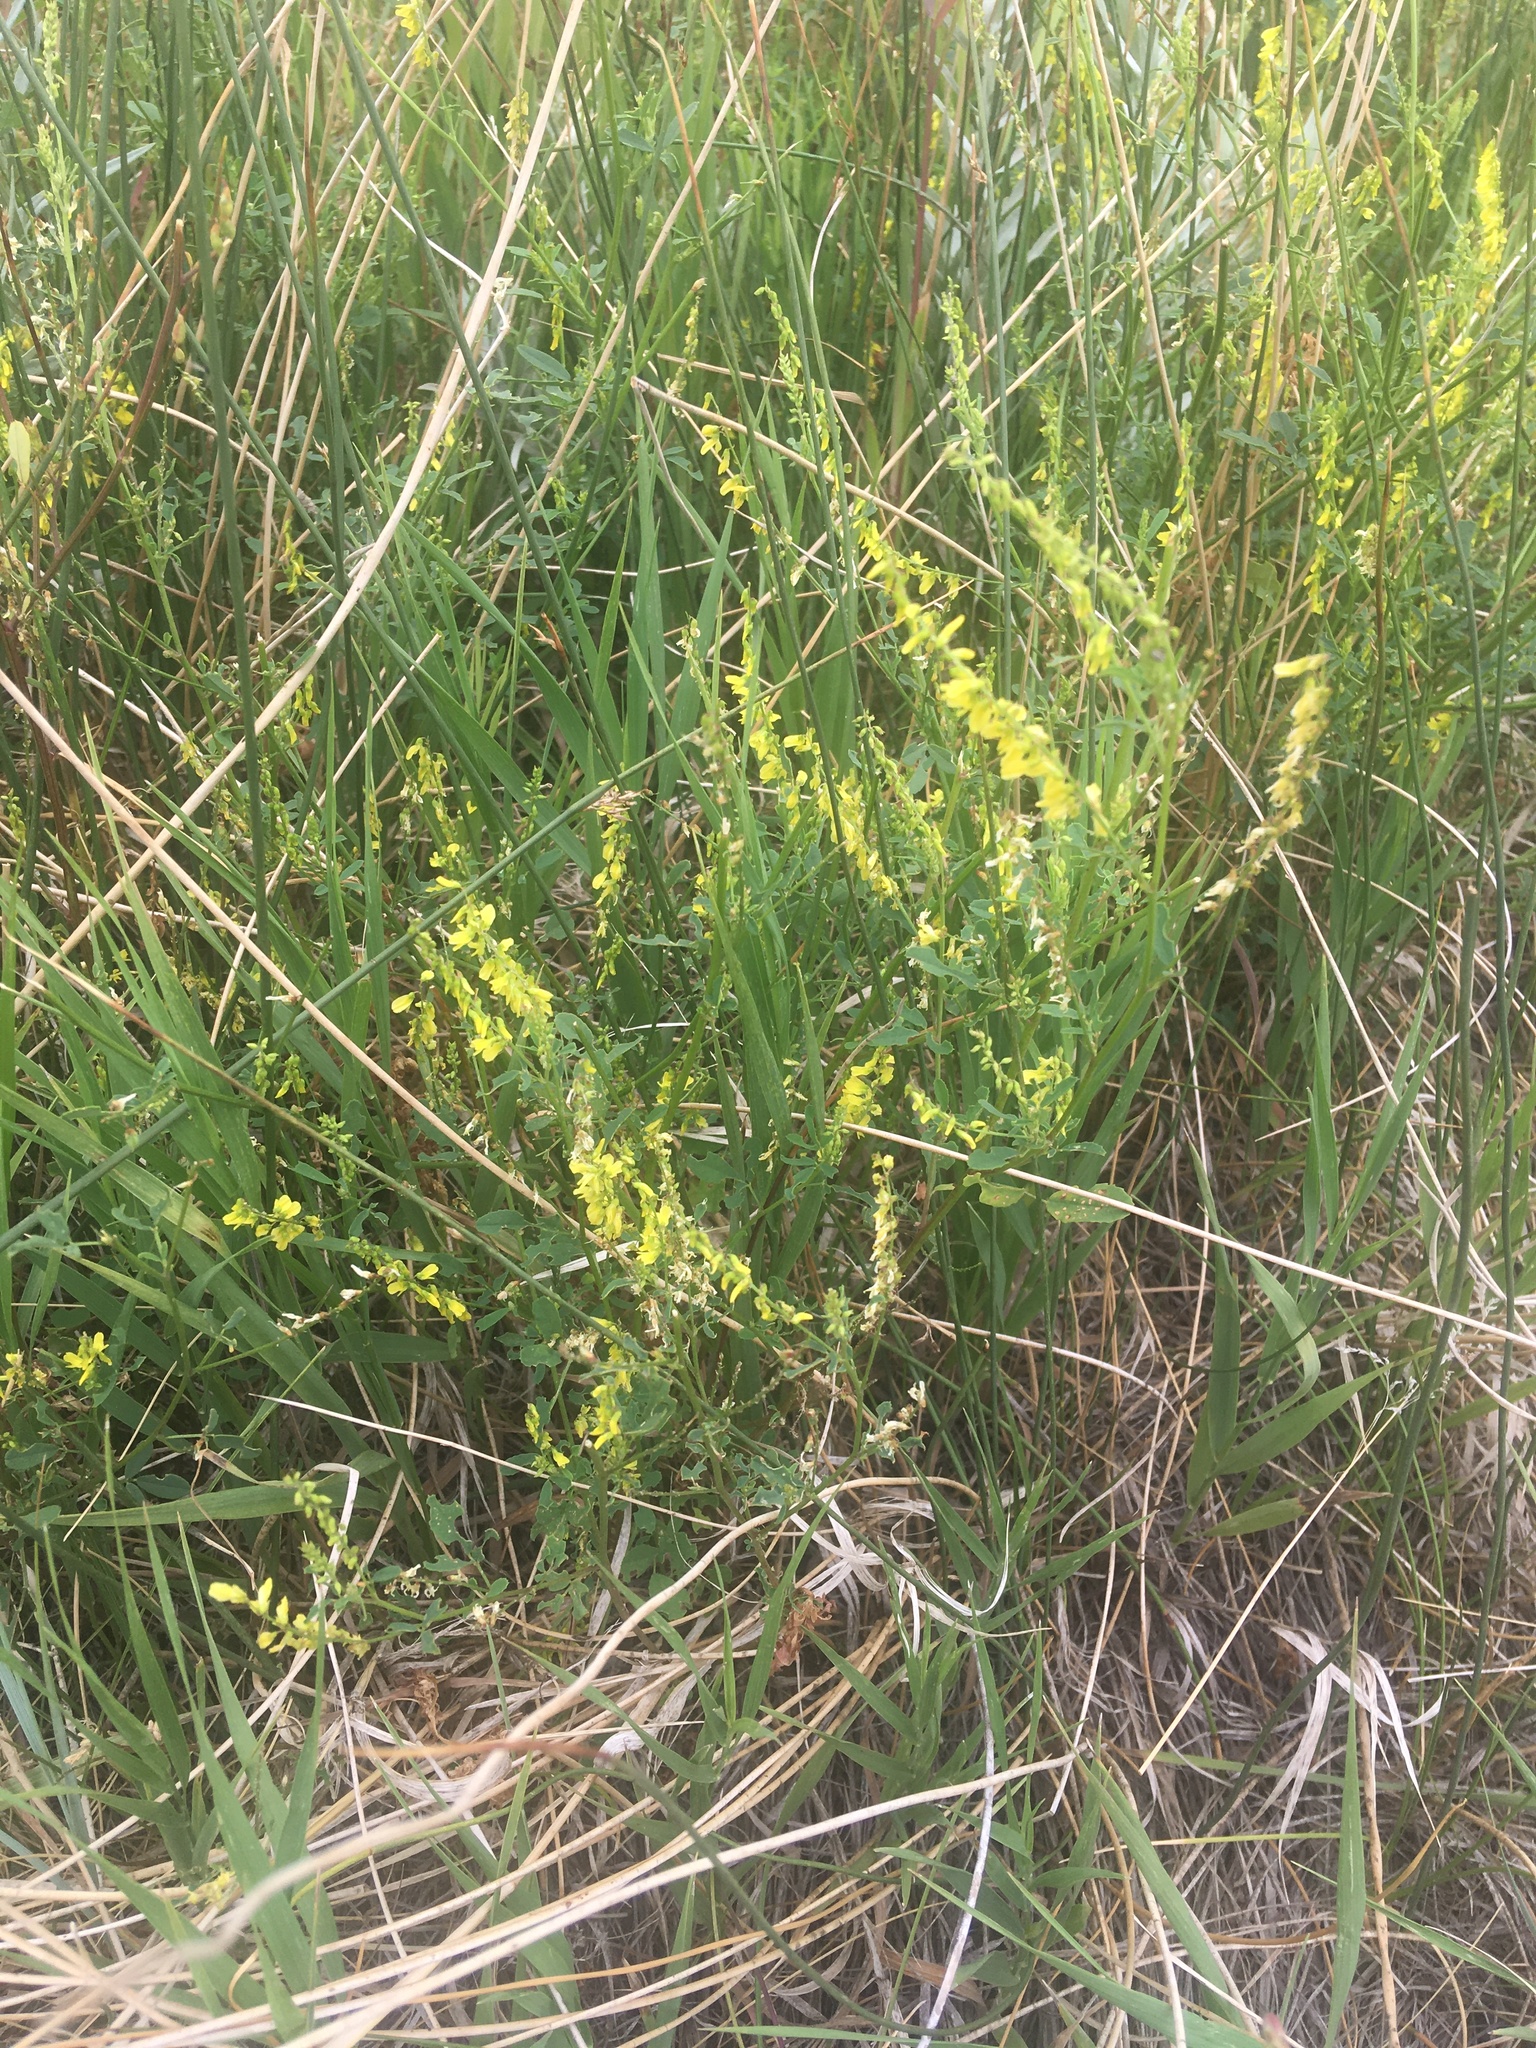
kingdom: Plantae
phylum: Tracheophyta
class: Magnoliopsida
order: Fabales
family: Fabaceae
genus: Melilotus
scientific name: Melilotus officinalis
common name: Sweetclover
